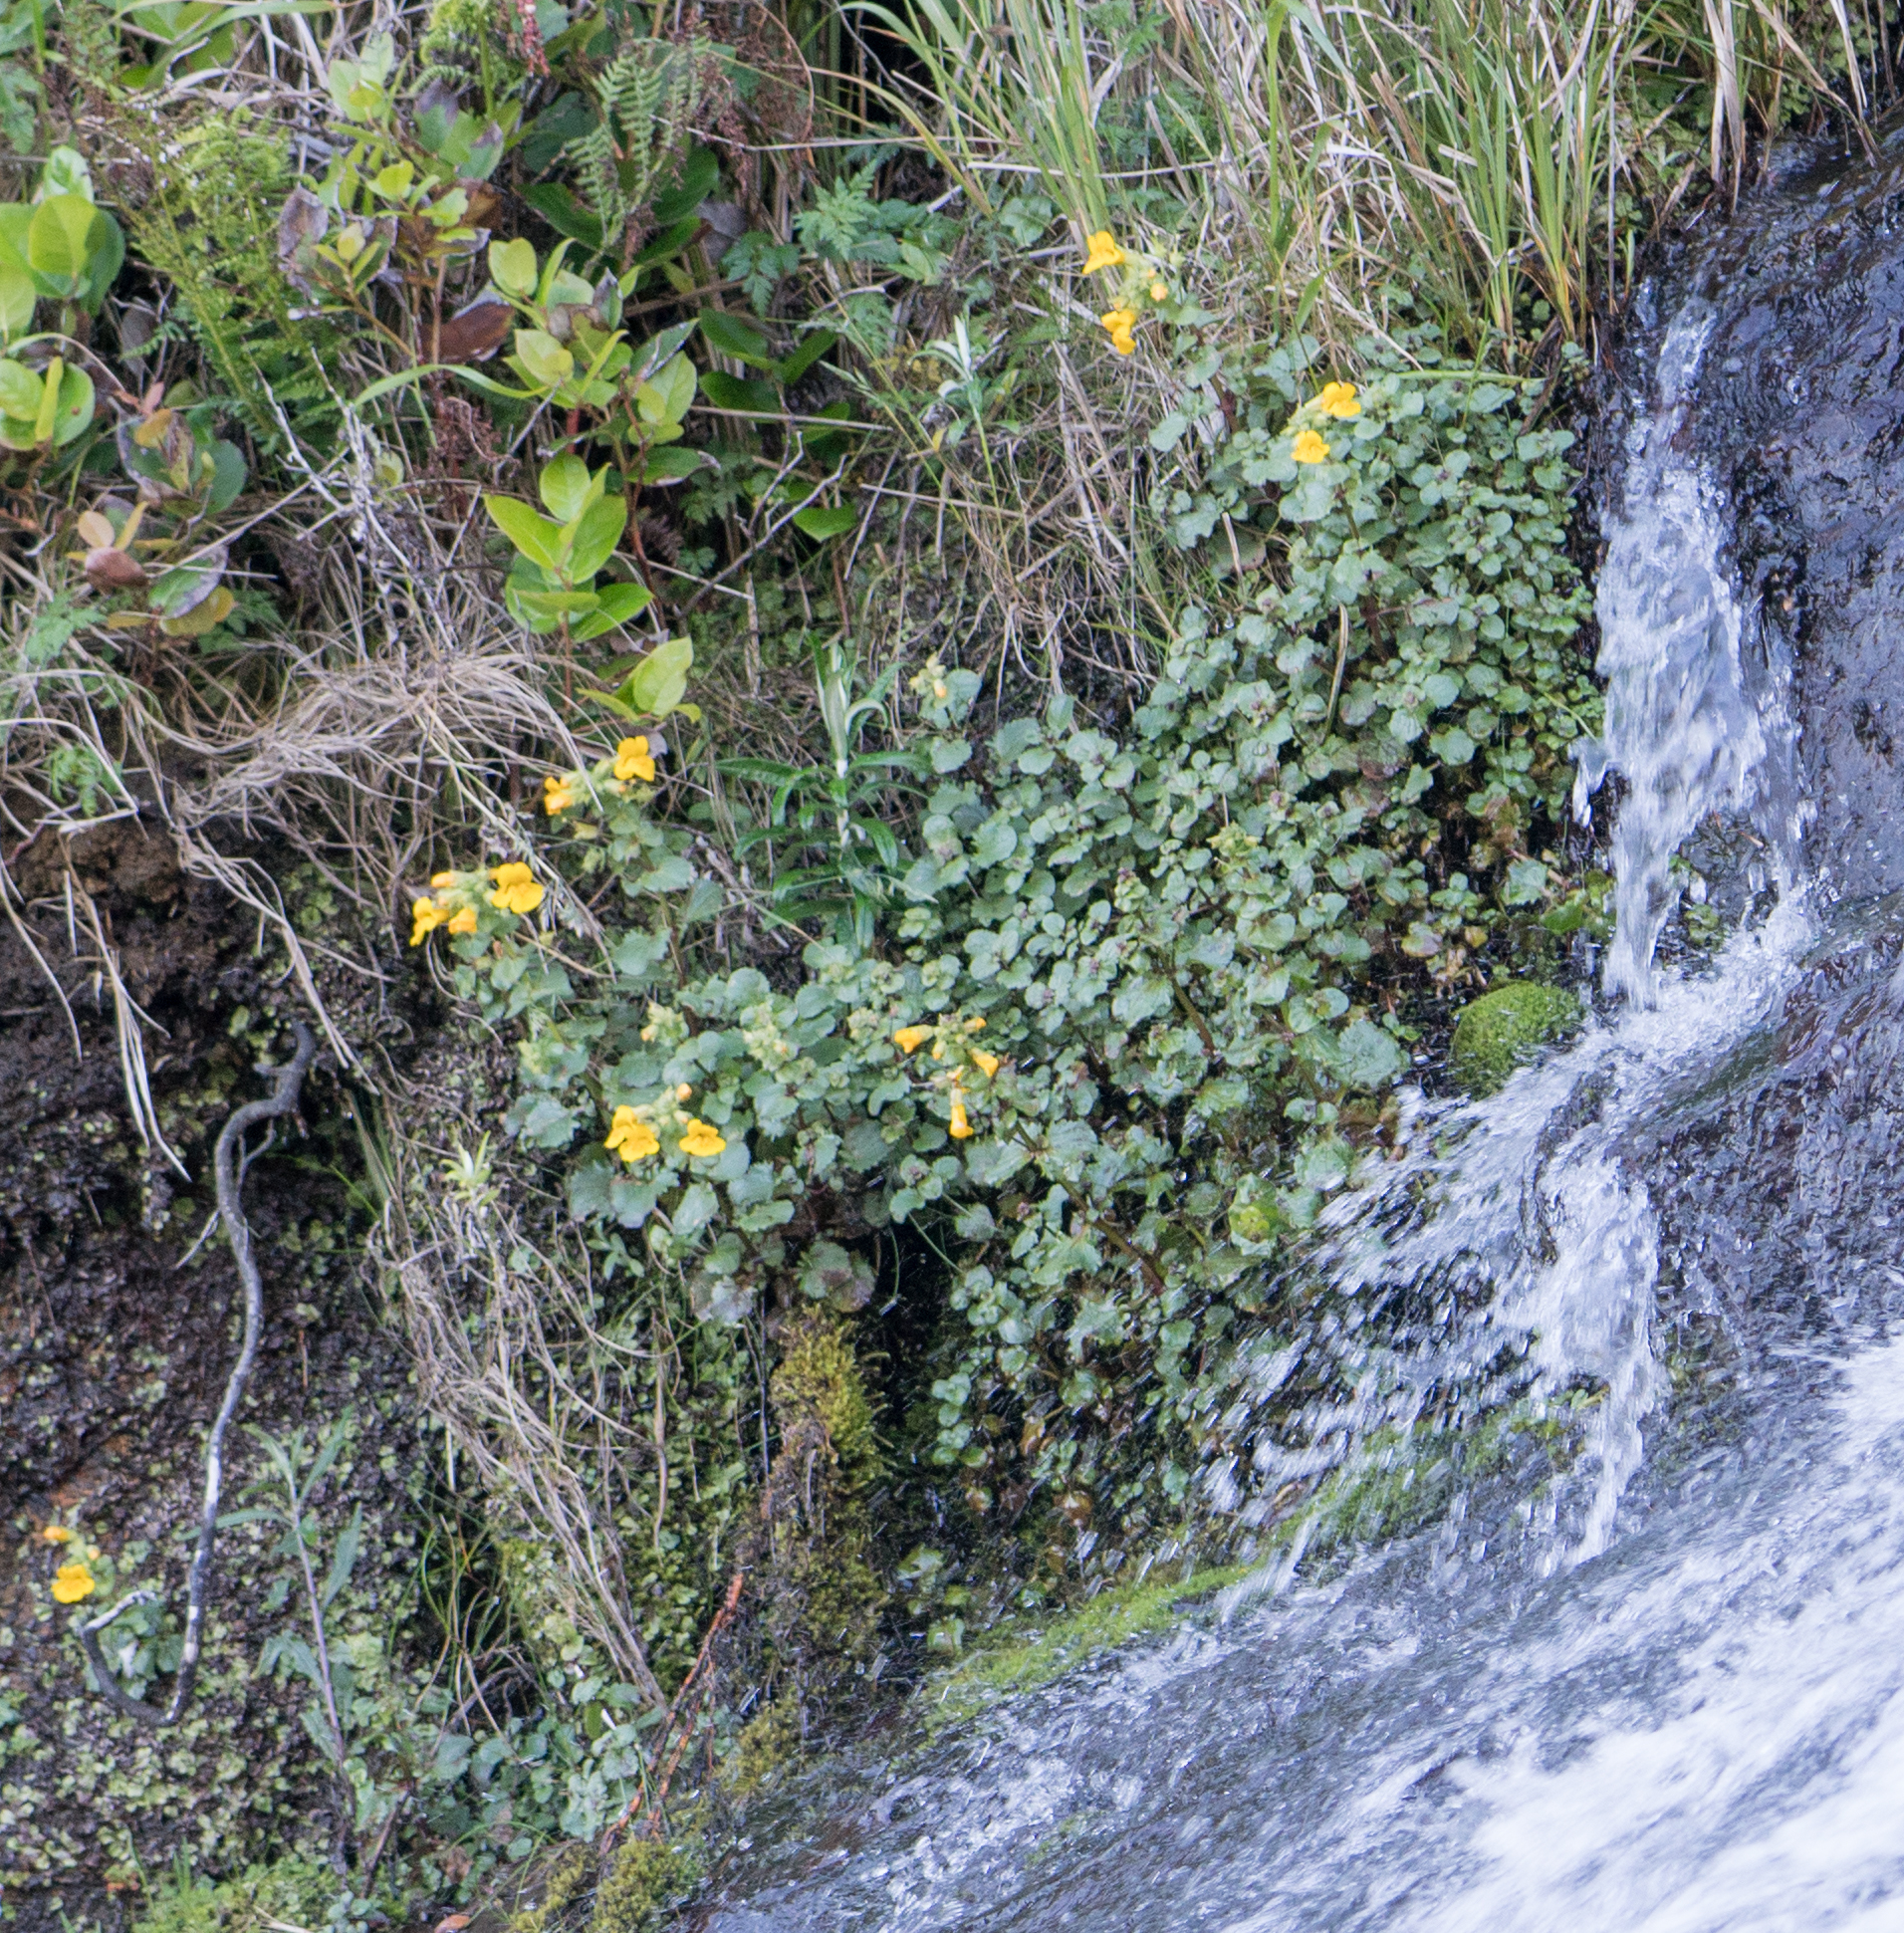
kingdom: Plantae
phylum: Tracheophyta
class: Magnoliopsida
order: Lamiales
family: Phrymaceae
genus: Erythranthe
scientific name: Erythranthe grandis
